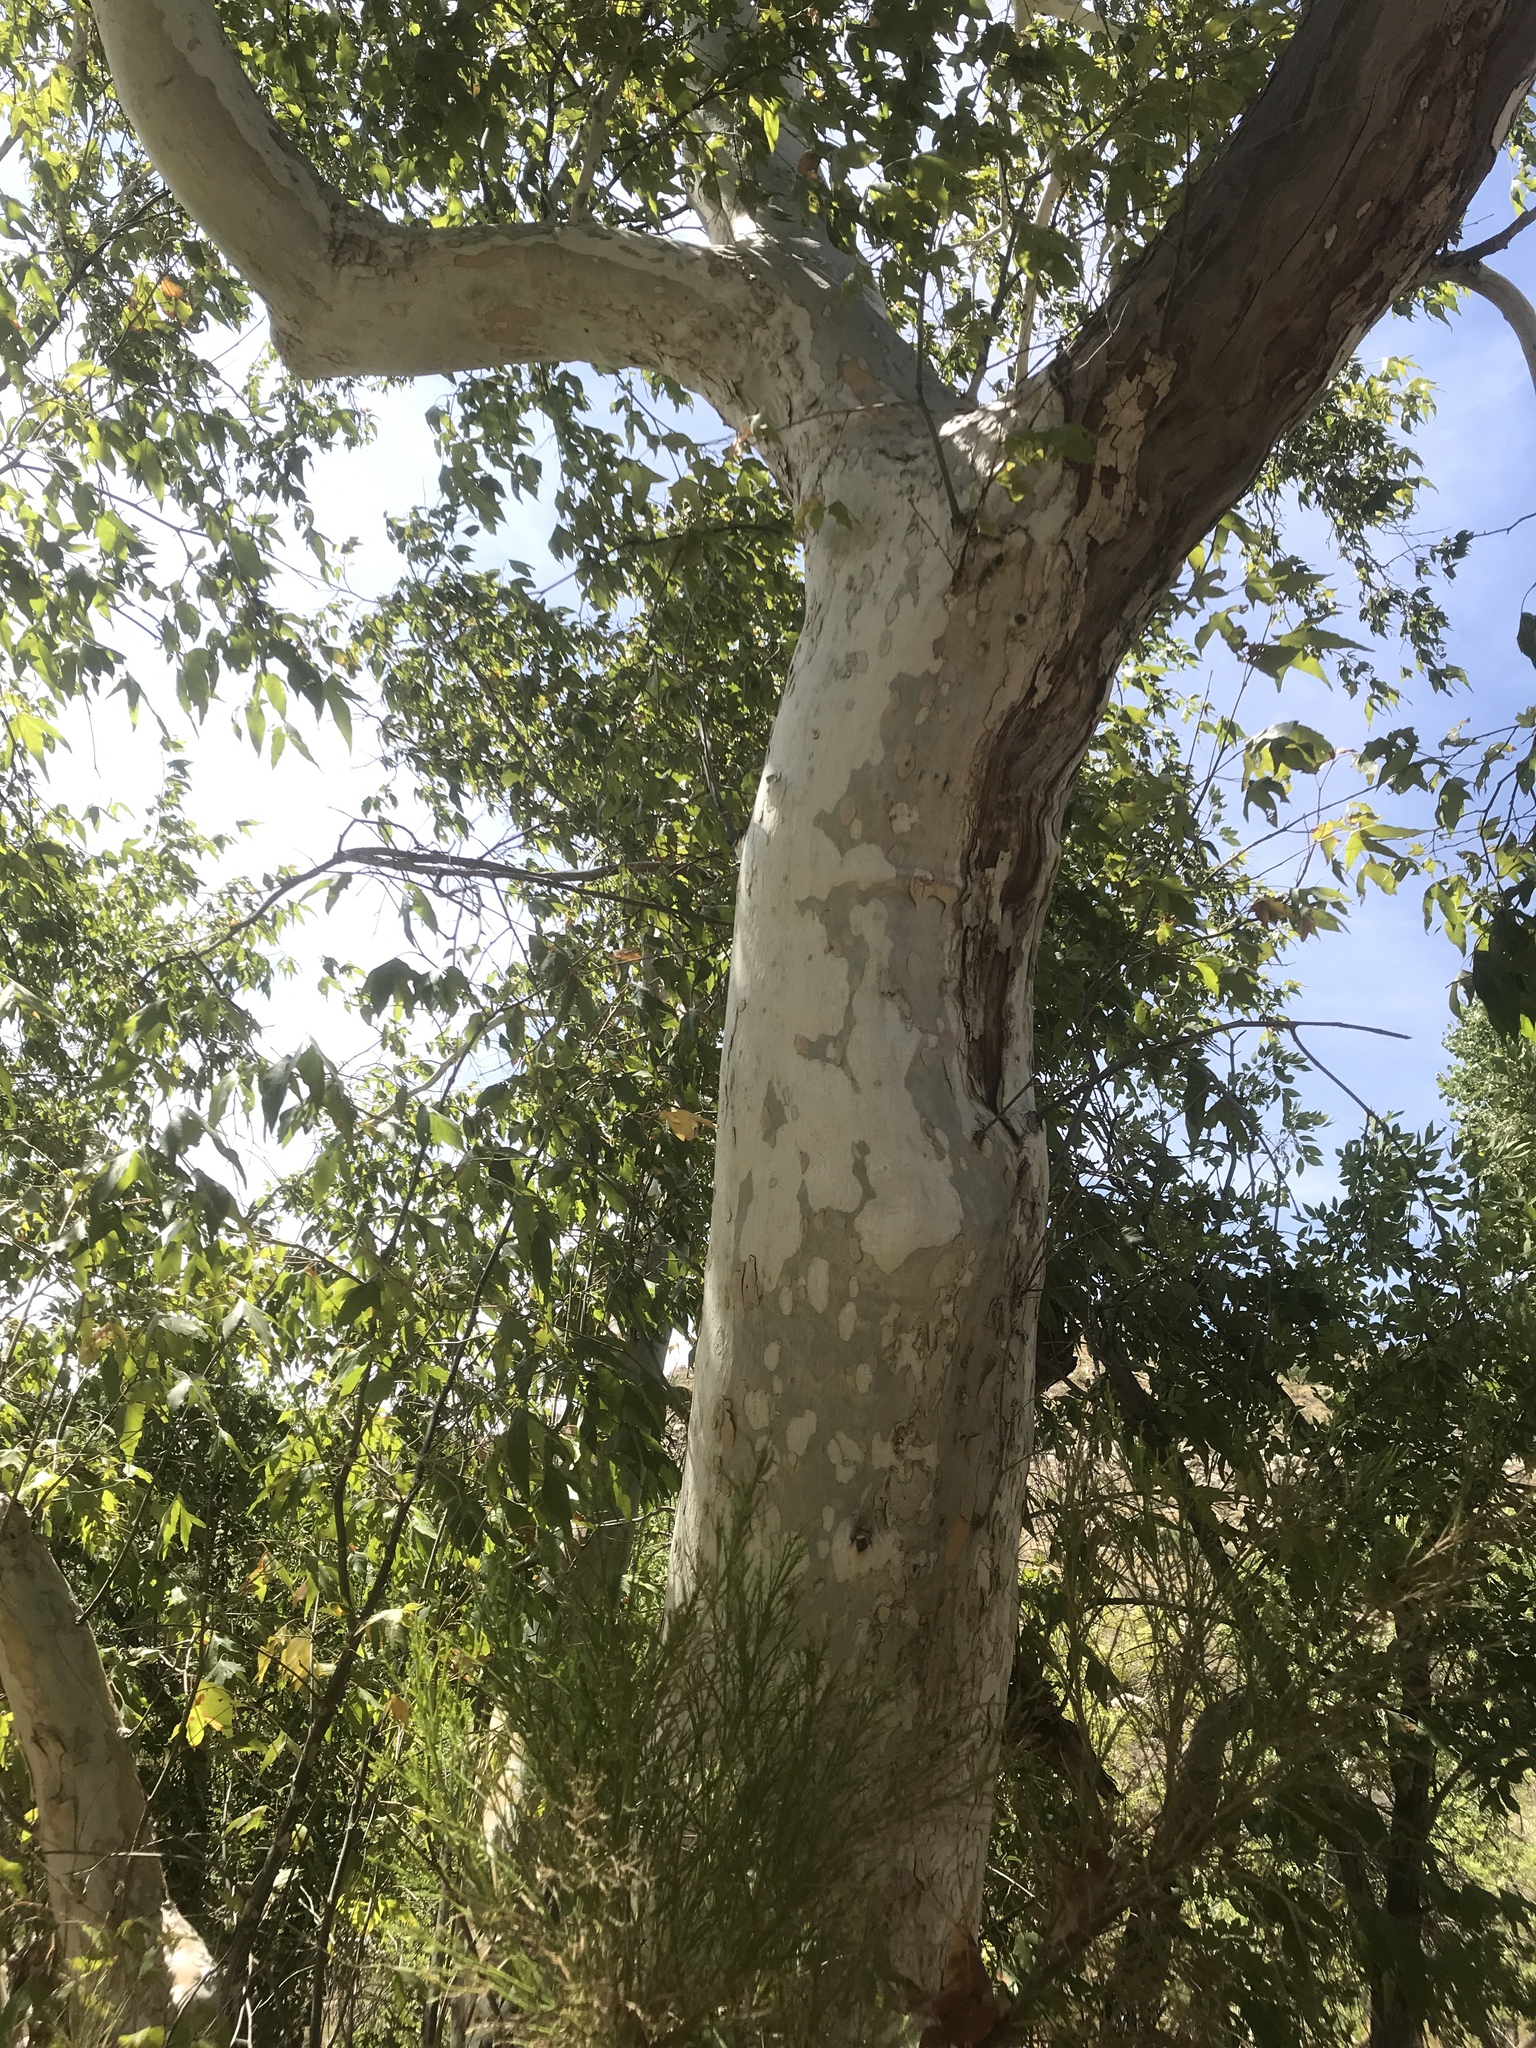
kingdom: Plantae
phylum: Tracheophyta
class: Magnoliopsida
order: Proteales
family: Platanaceae
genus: Platanus
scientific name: Platanus wrightii
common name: Arizona sycamore
